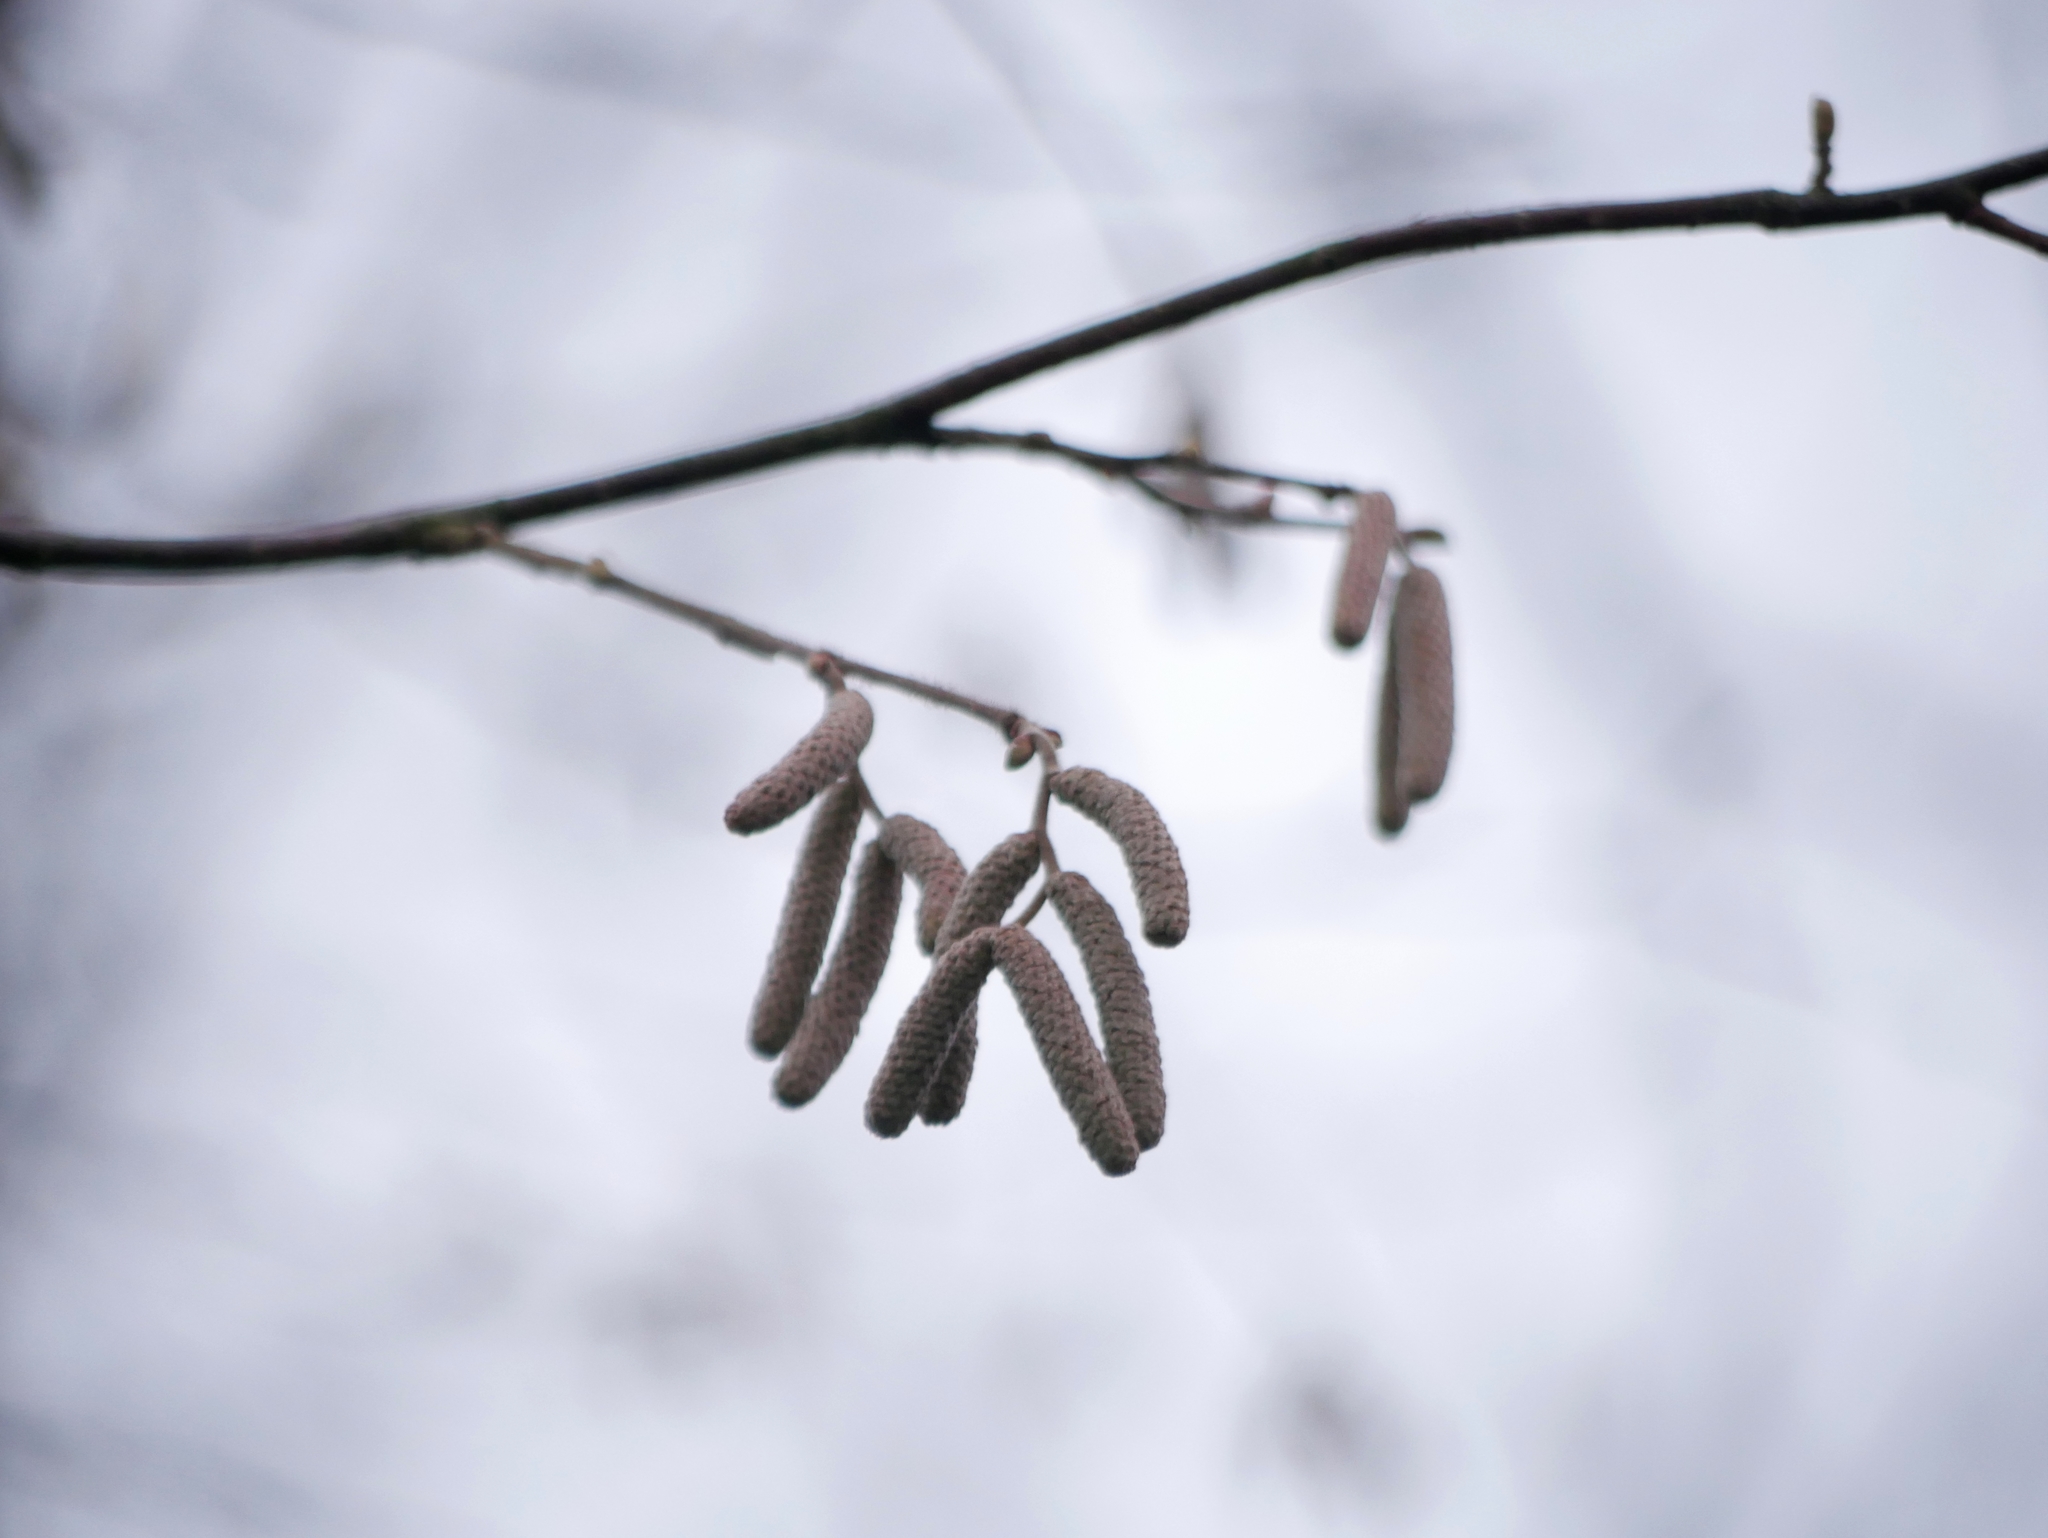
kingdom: Plantae
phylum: Tracheophyta
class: Magnoliopsida
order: Fagales
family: Betulaceae
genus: Corylus
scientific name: Corylus avellana
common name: European hazel
